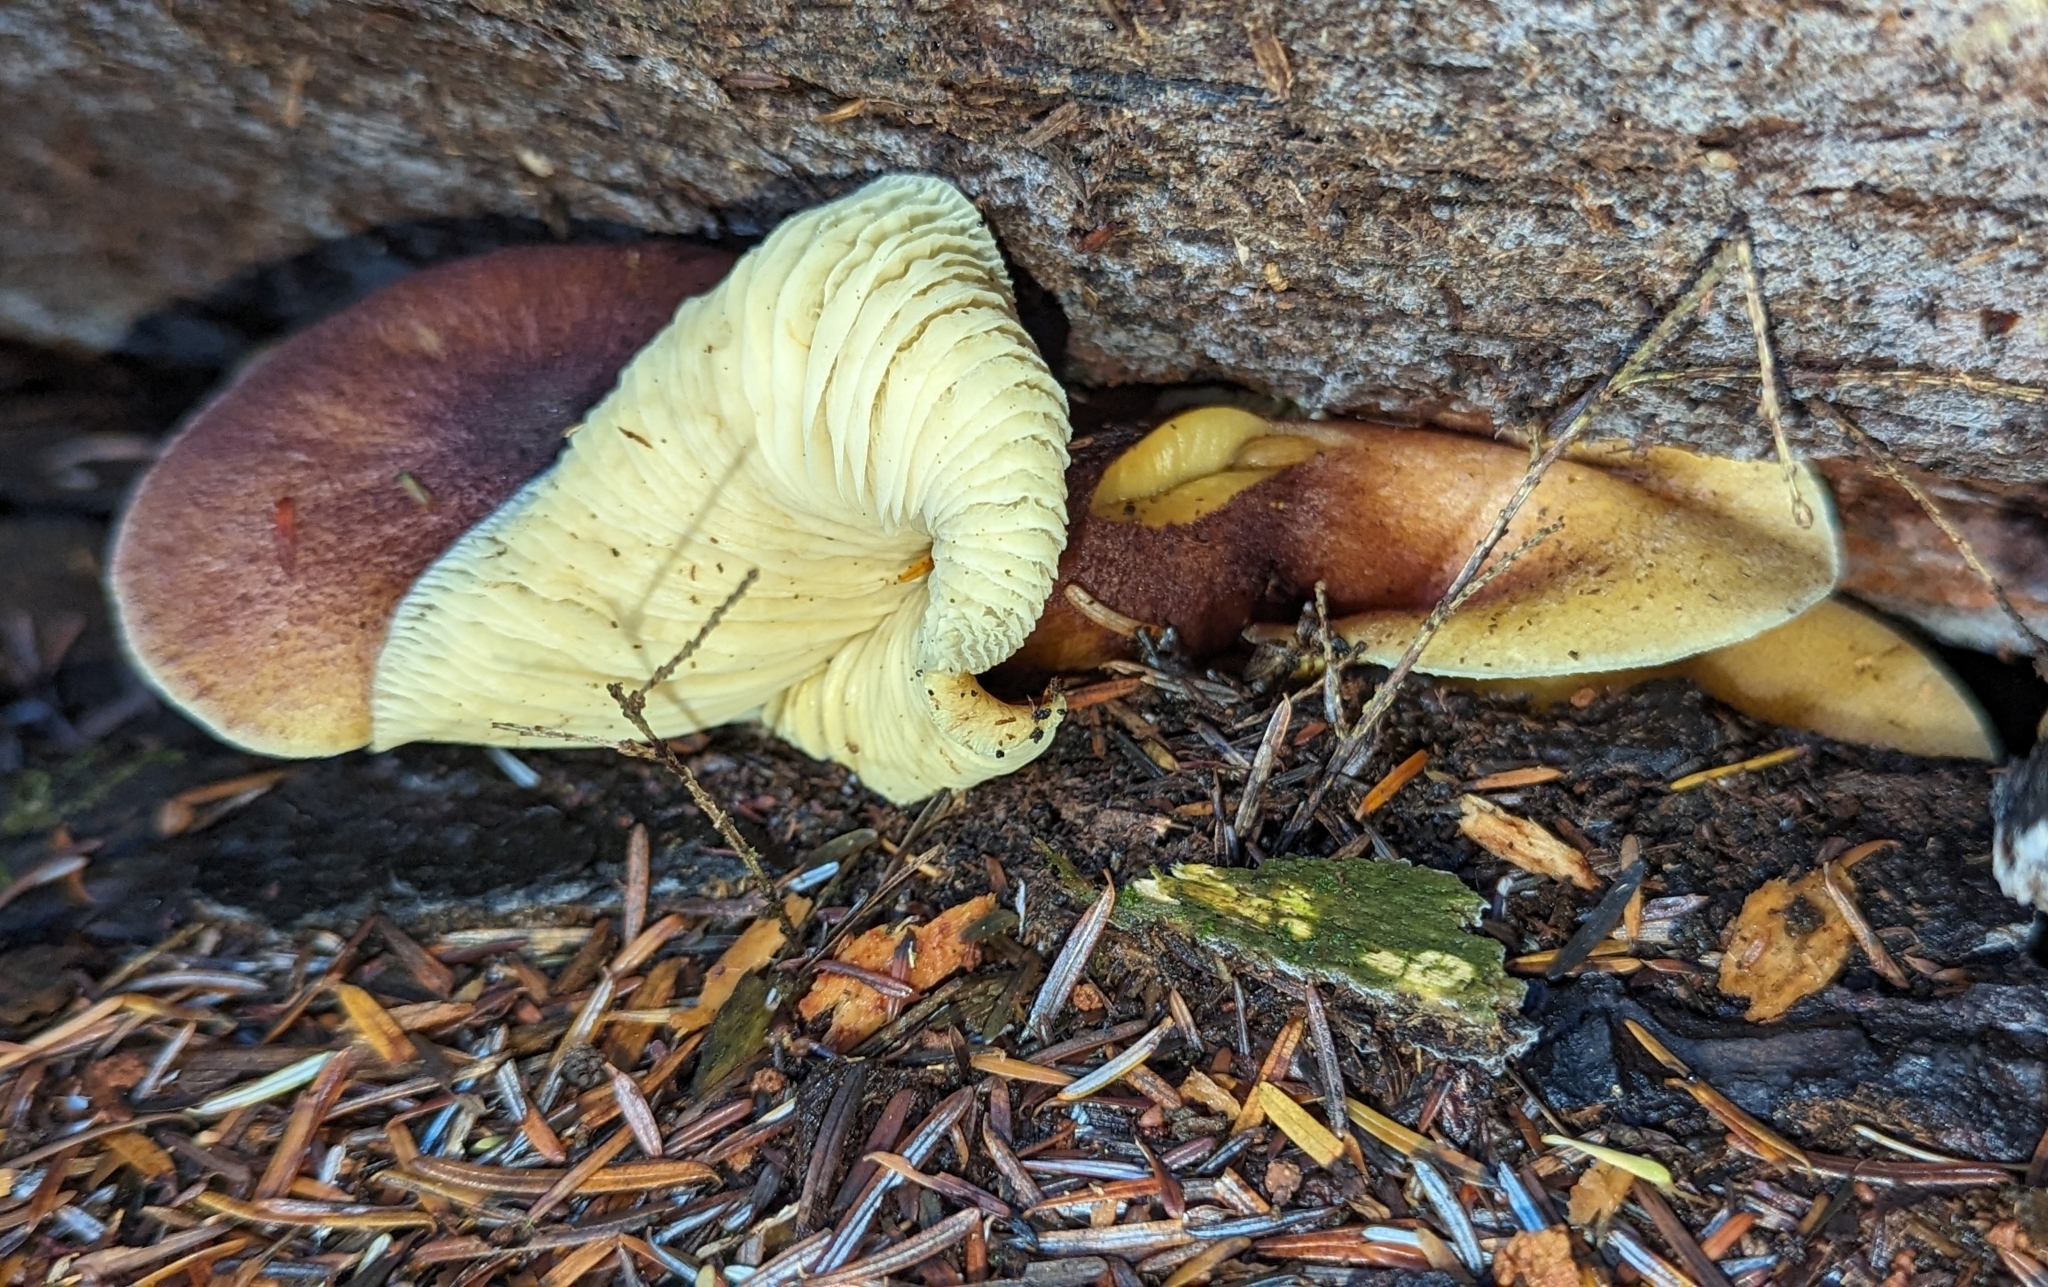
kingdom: Fungi
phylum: Basidiomycota
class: Agaricomycetes
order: Agaricales
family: Tricholomataceae
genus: Tricholomopsis
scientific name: Tricholomopsis rutilans
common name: Plums and custard
